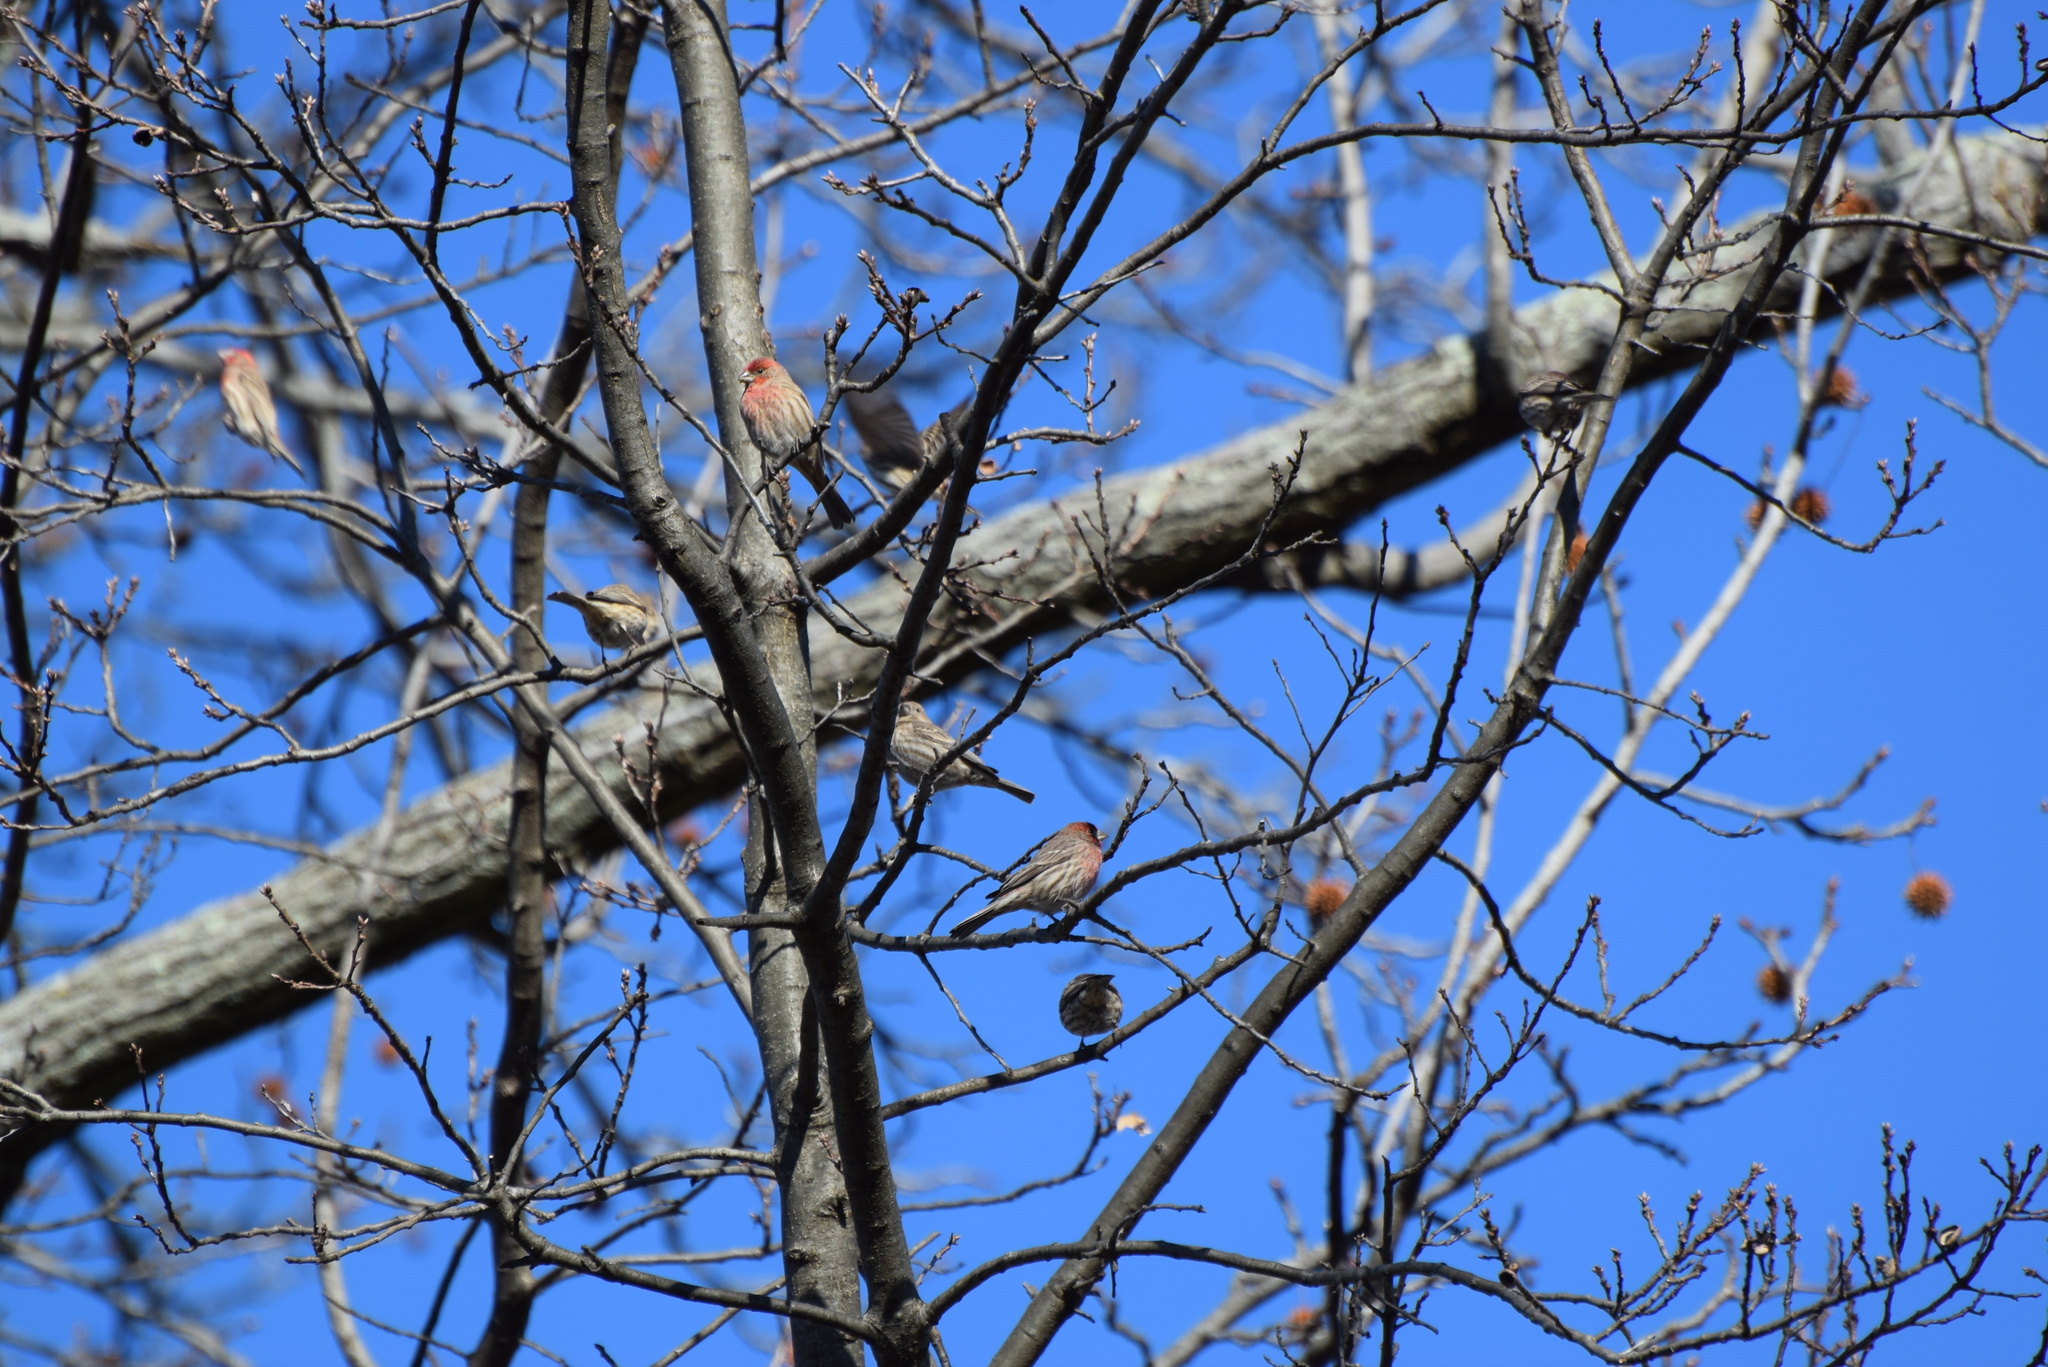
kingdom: Animalia
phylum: Chordata
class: Aves
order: Passeriformes
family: Fringillidae
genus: Haemorhous
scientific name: Haemorhous mexicanus
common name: House finch
